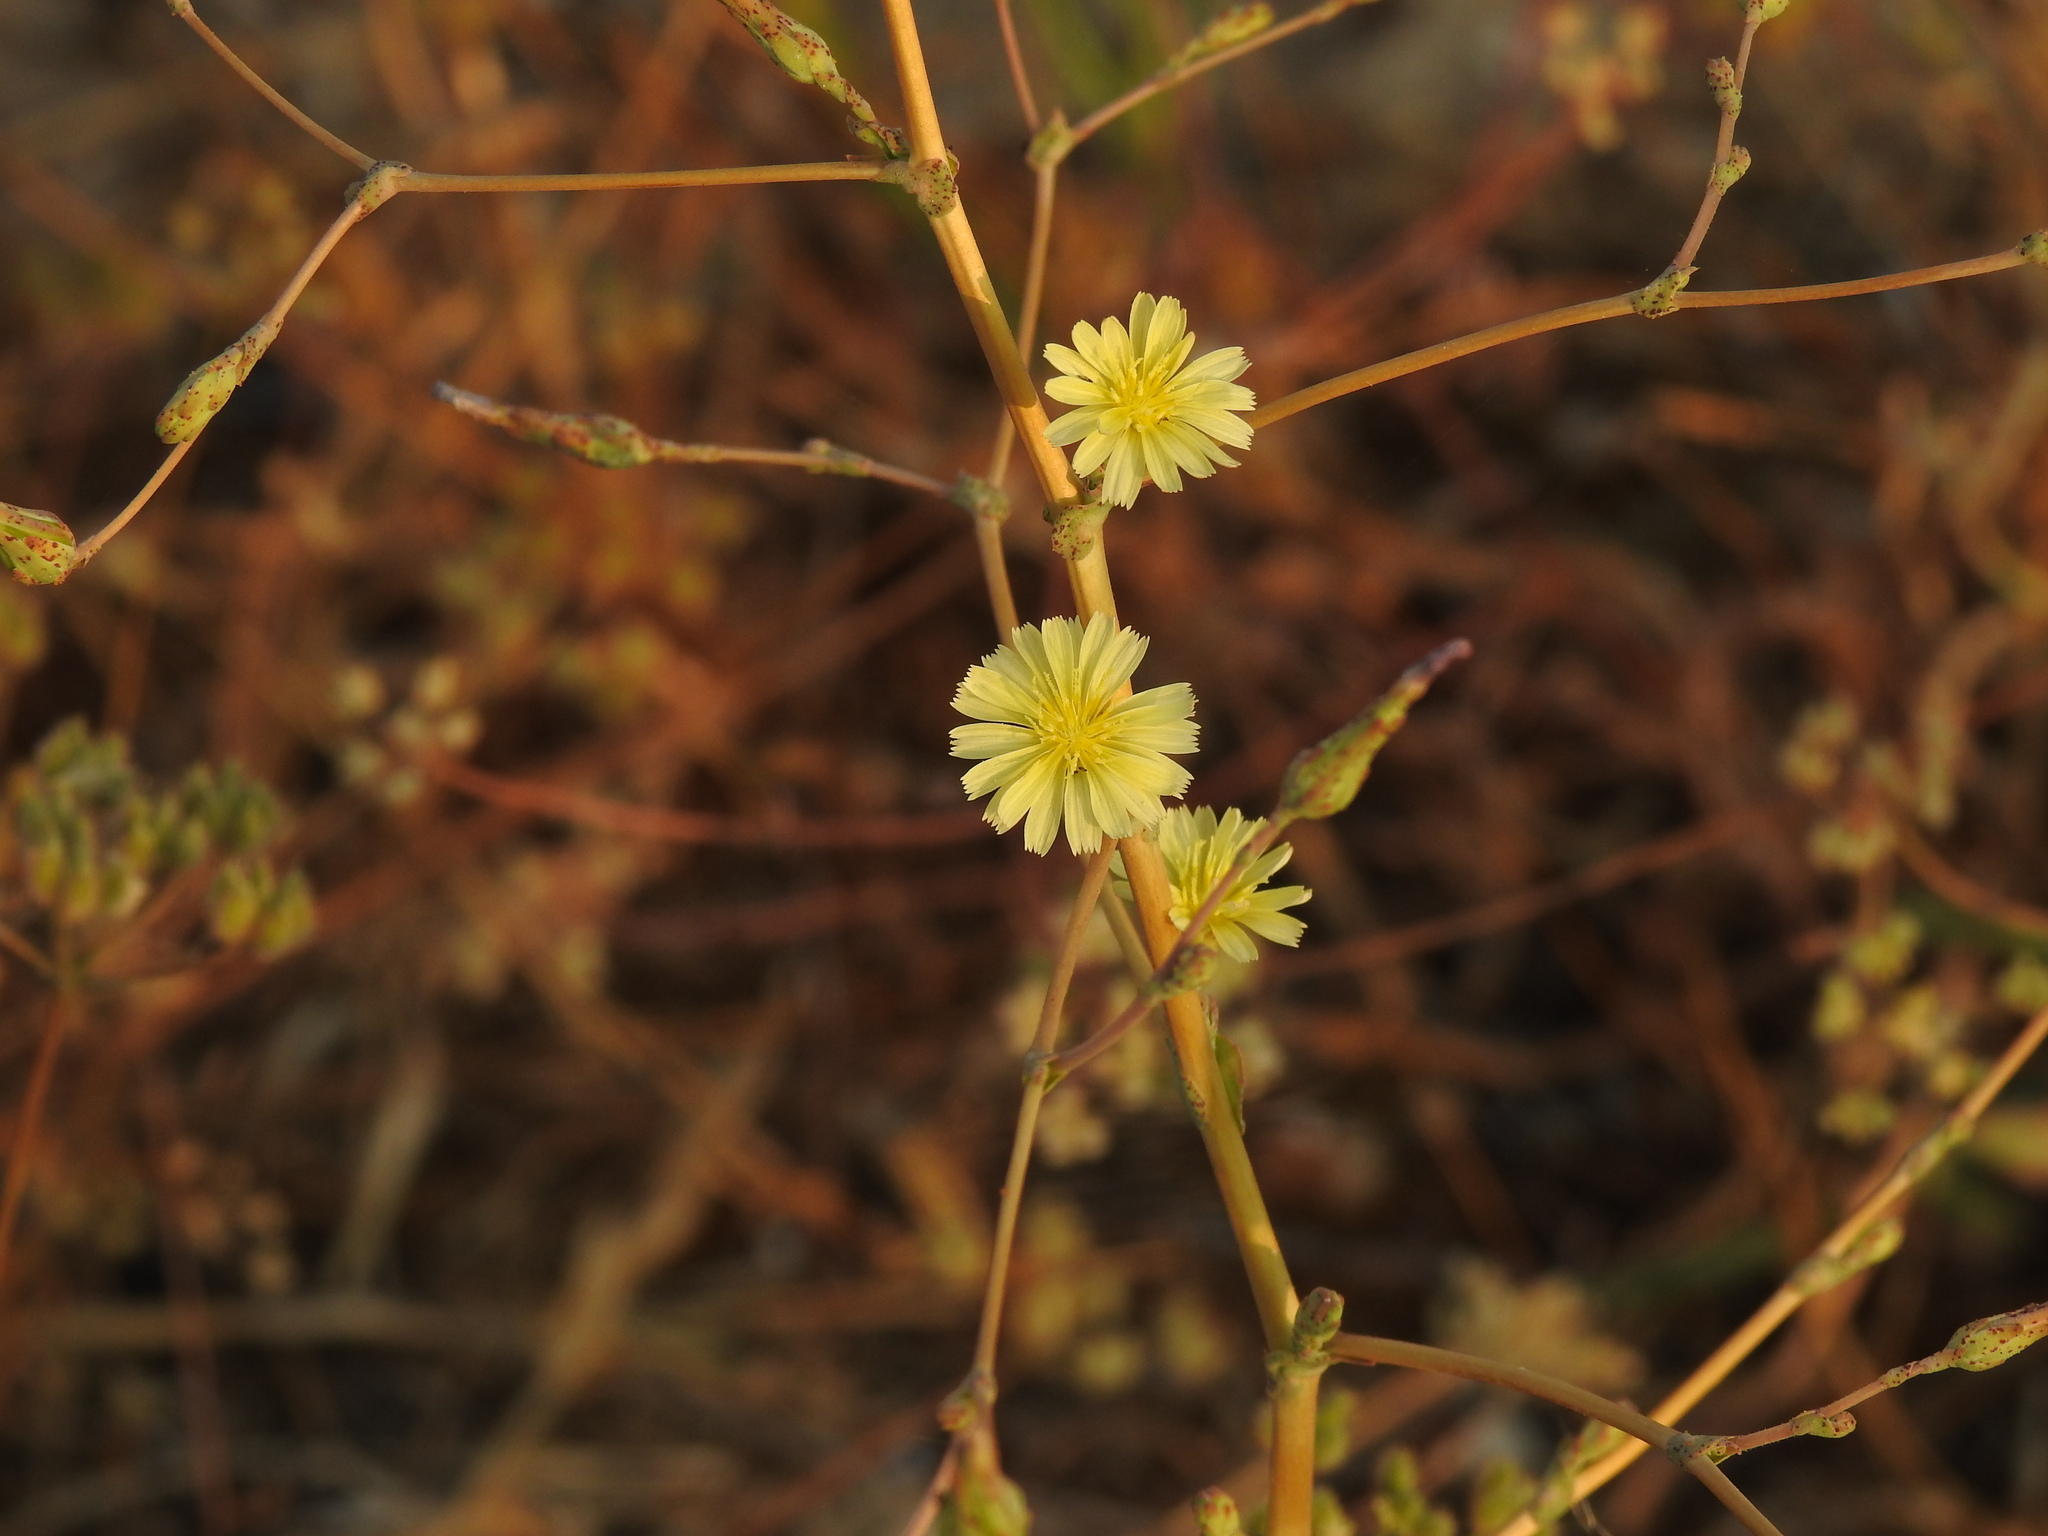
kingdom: Plantae
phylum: Tracheophyta
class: Magnoliopsida
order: Asterales
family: Asteraceae
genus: Lactuca
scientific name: Lactuca serriola
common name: Prickly lettuce
